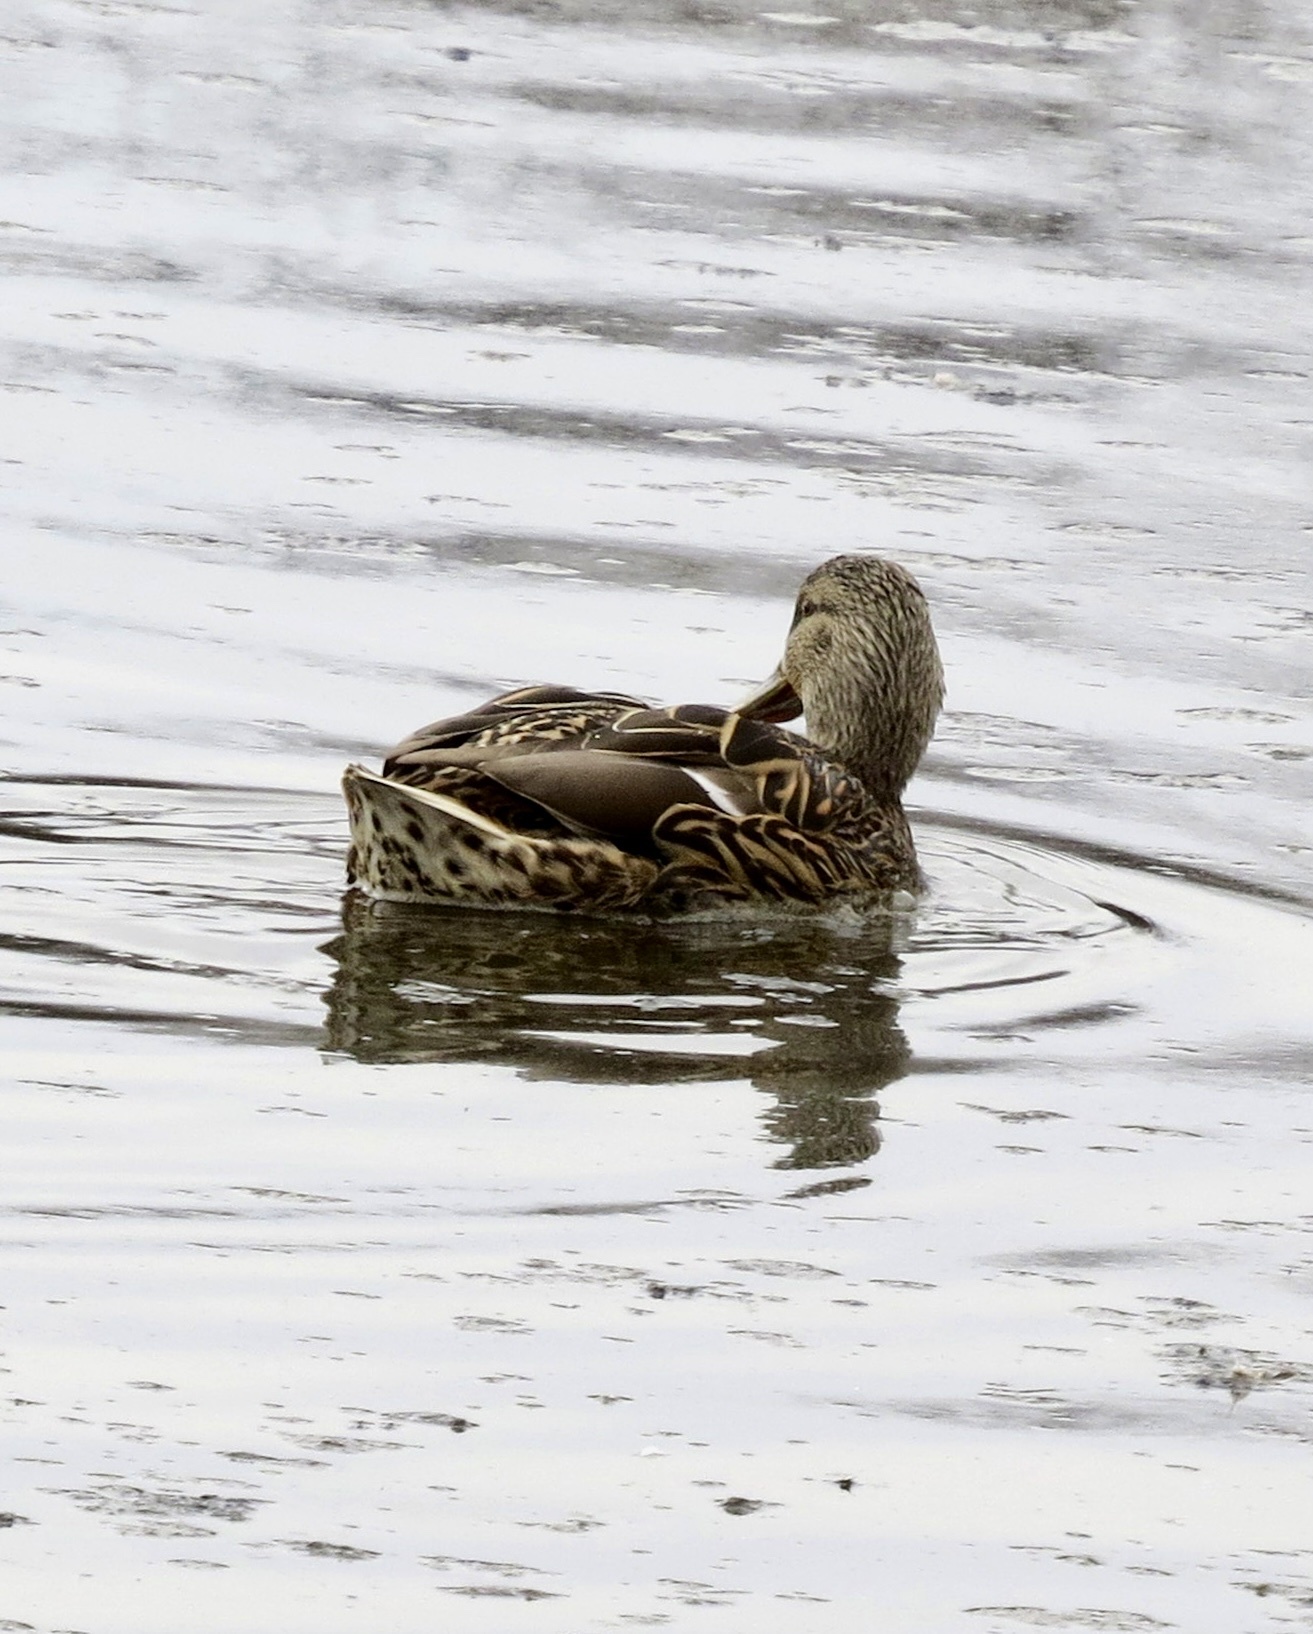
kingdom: Animalia
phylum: Chordata
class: Aves
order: Anseriformes
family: Anatidae
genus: Anas
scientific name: Anas platyrhynchos
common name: Mallard
